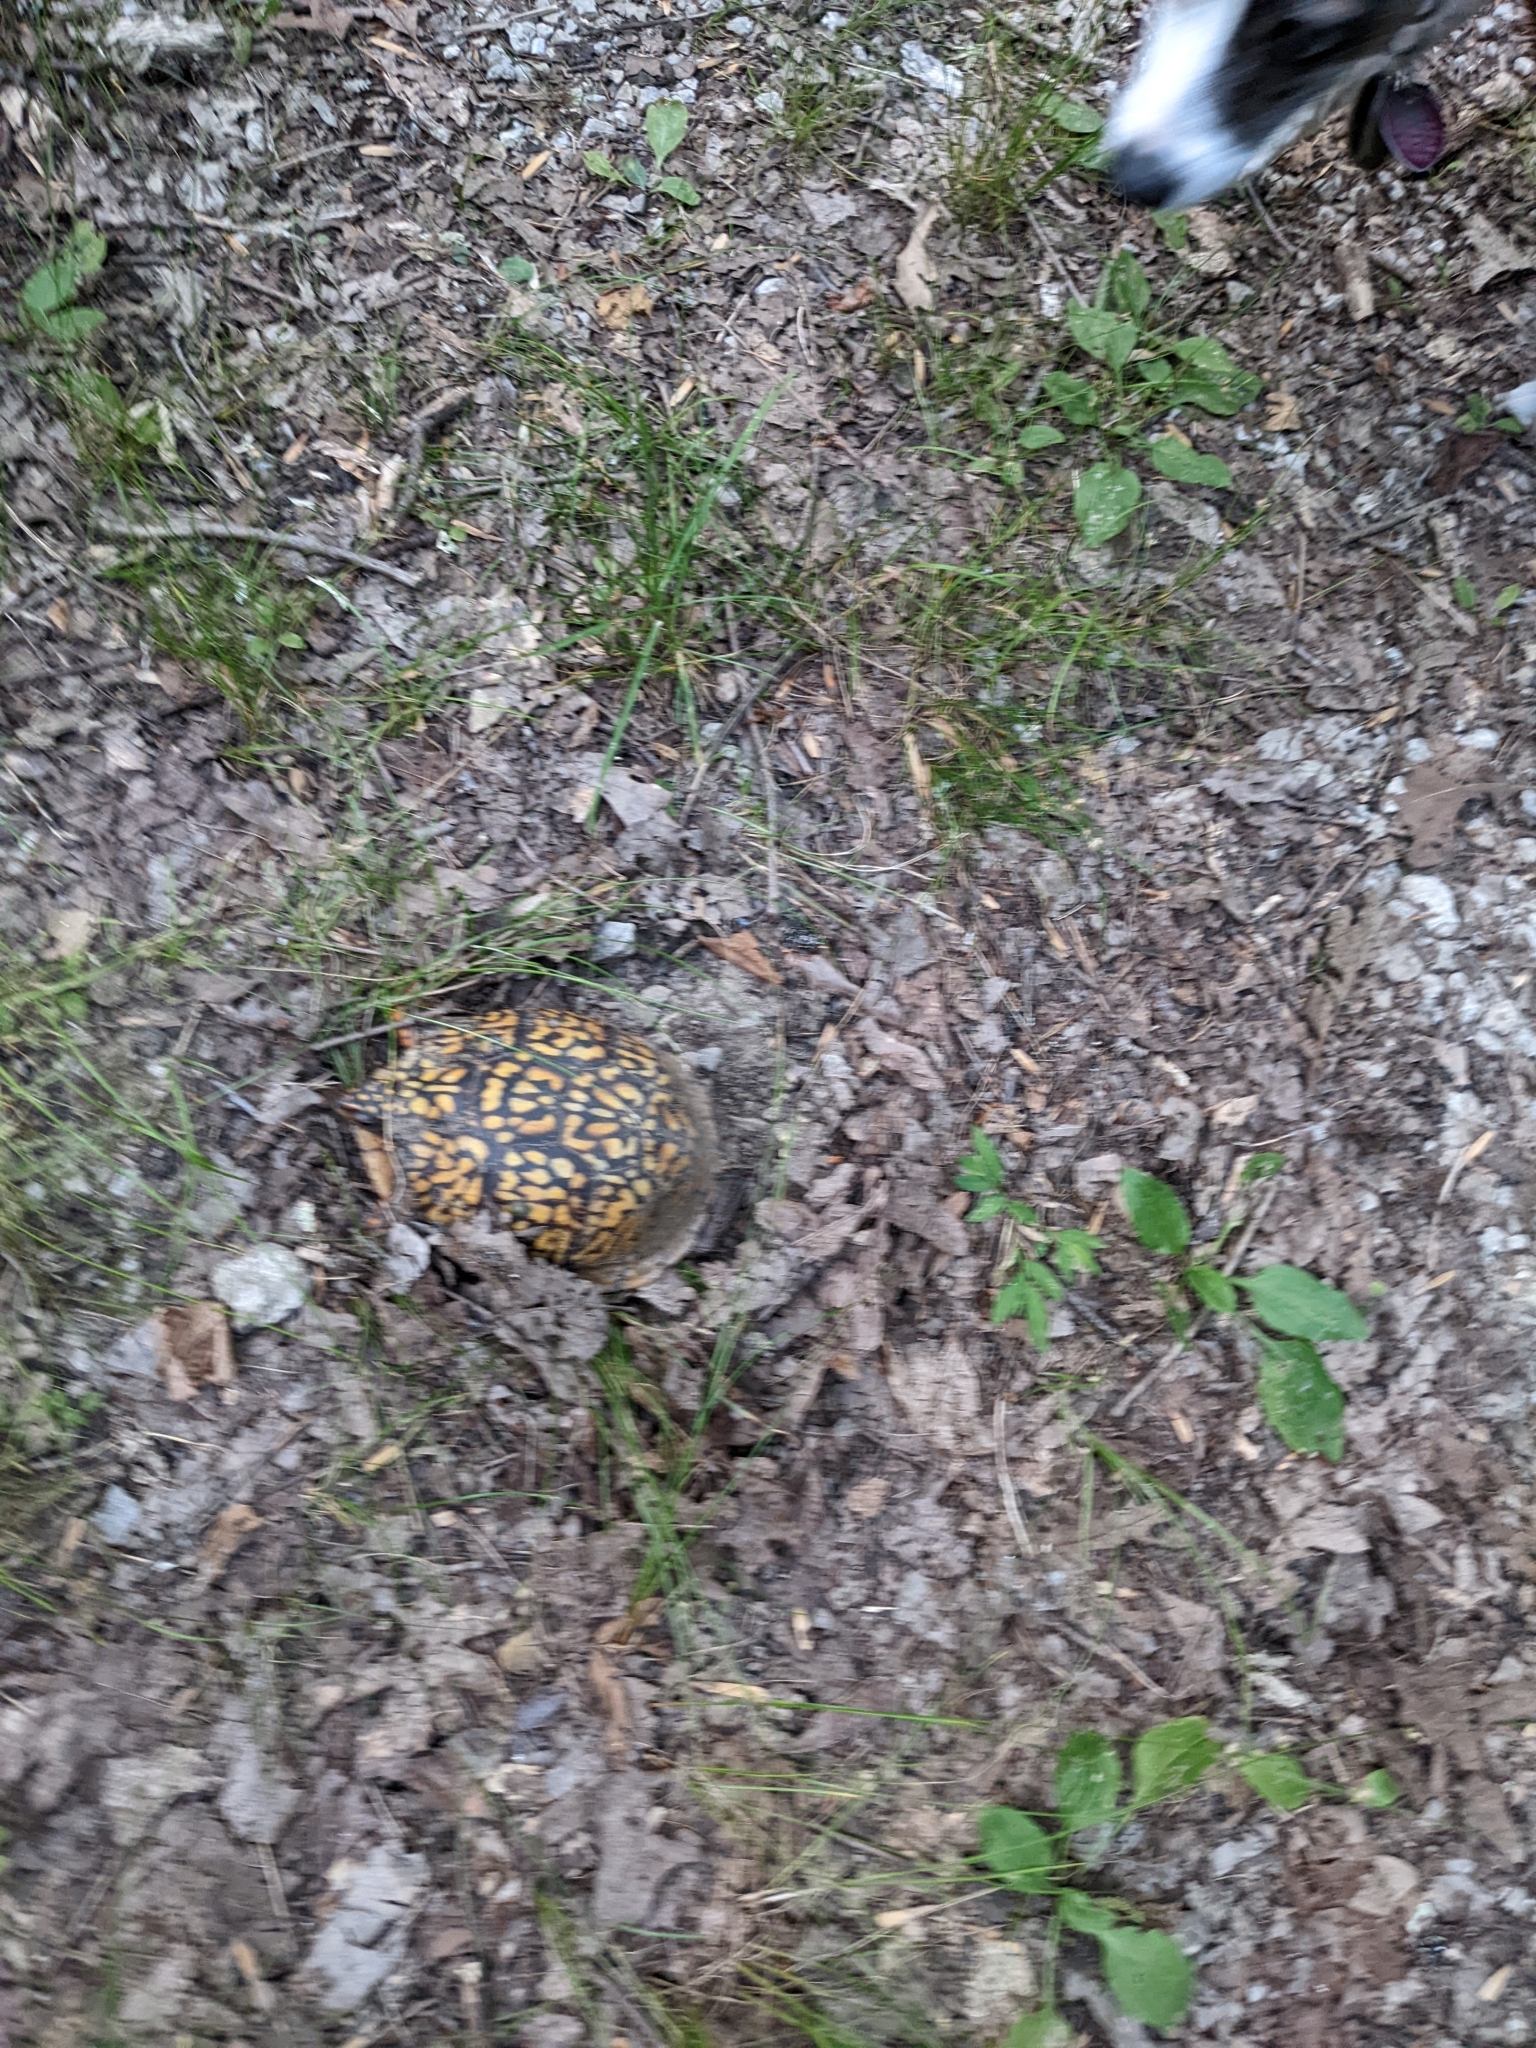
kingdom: Animalia
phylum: Chordata
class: Testudines
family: Emydidae
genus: Terrapene
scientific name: Terrapene carolina
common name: Common box turtle
